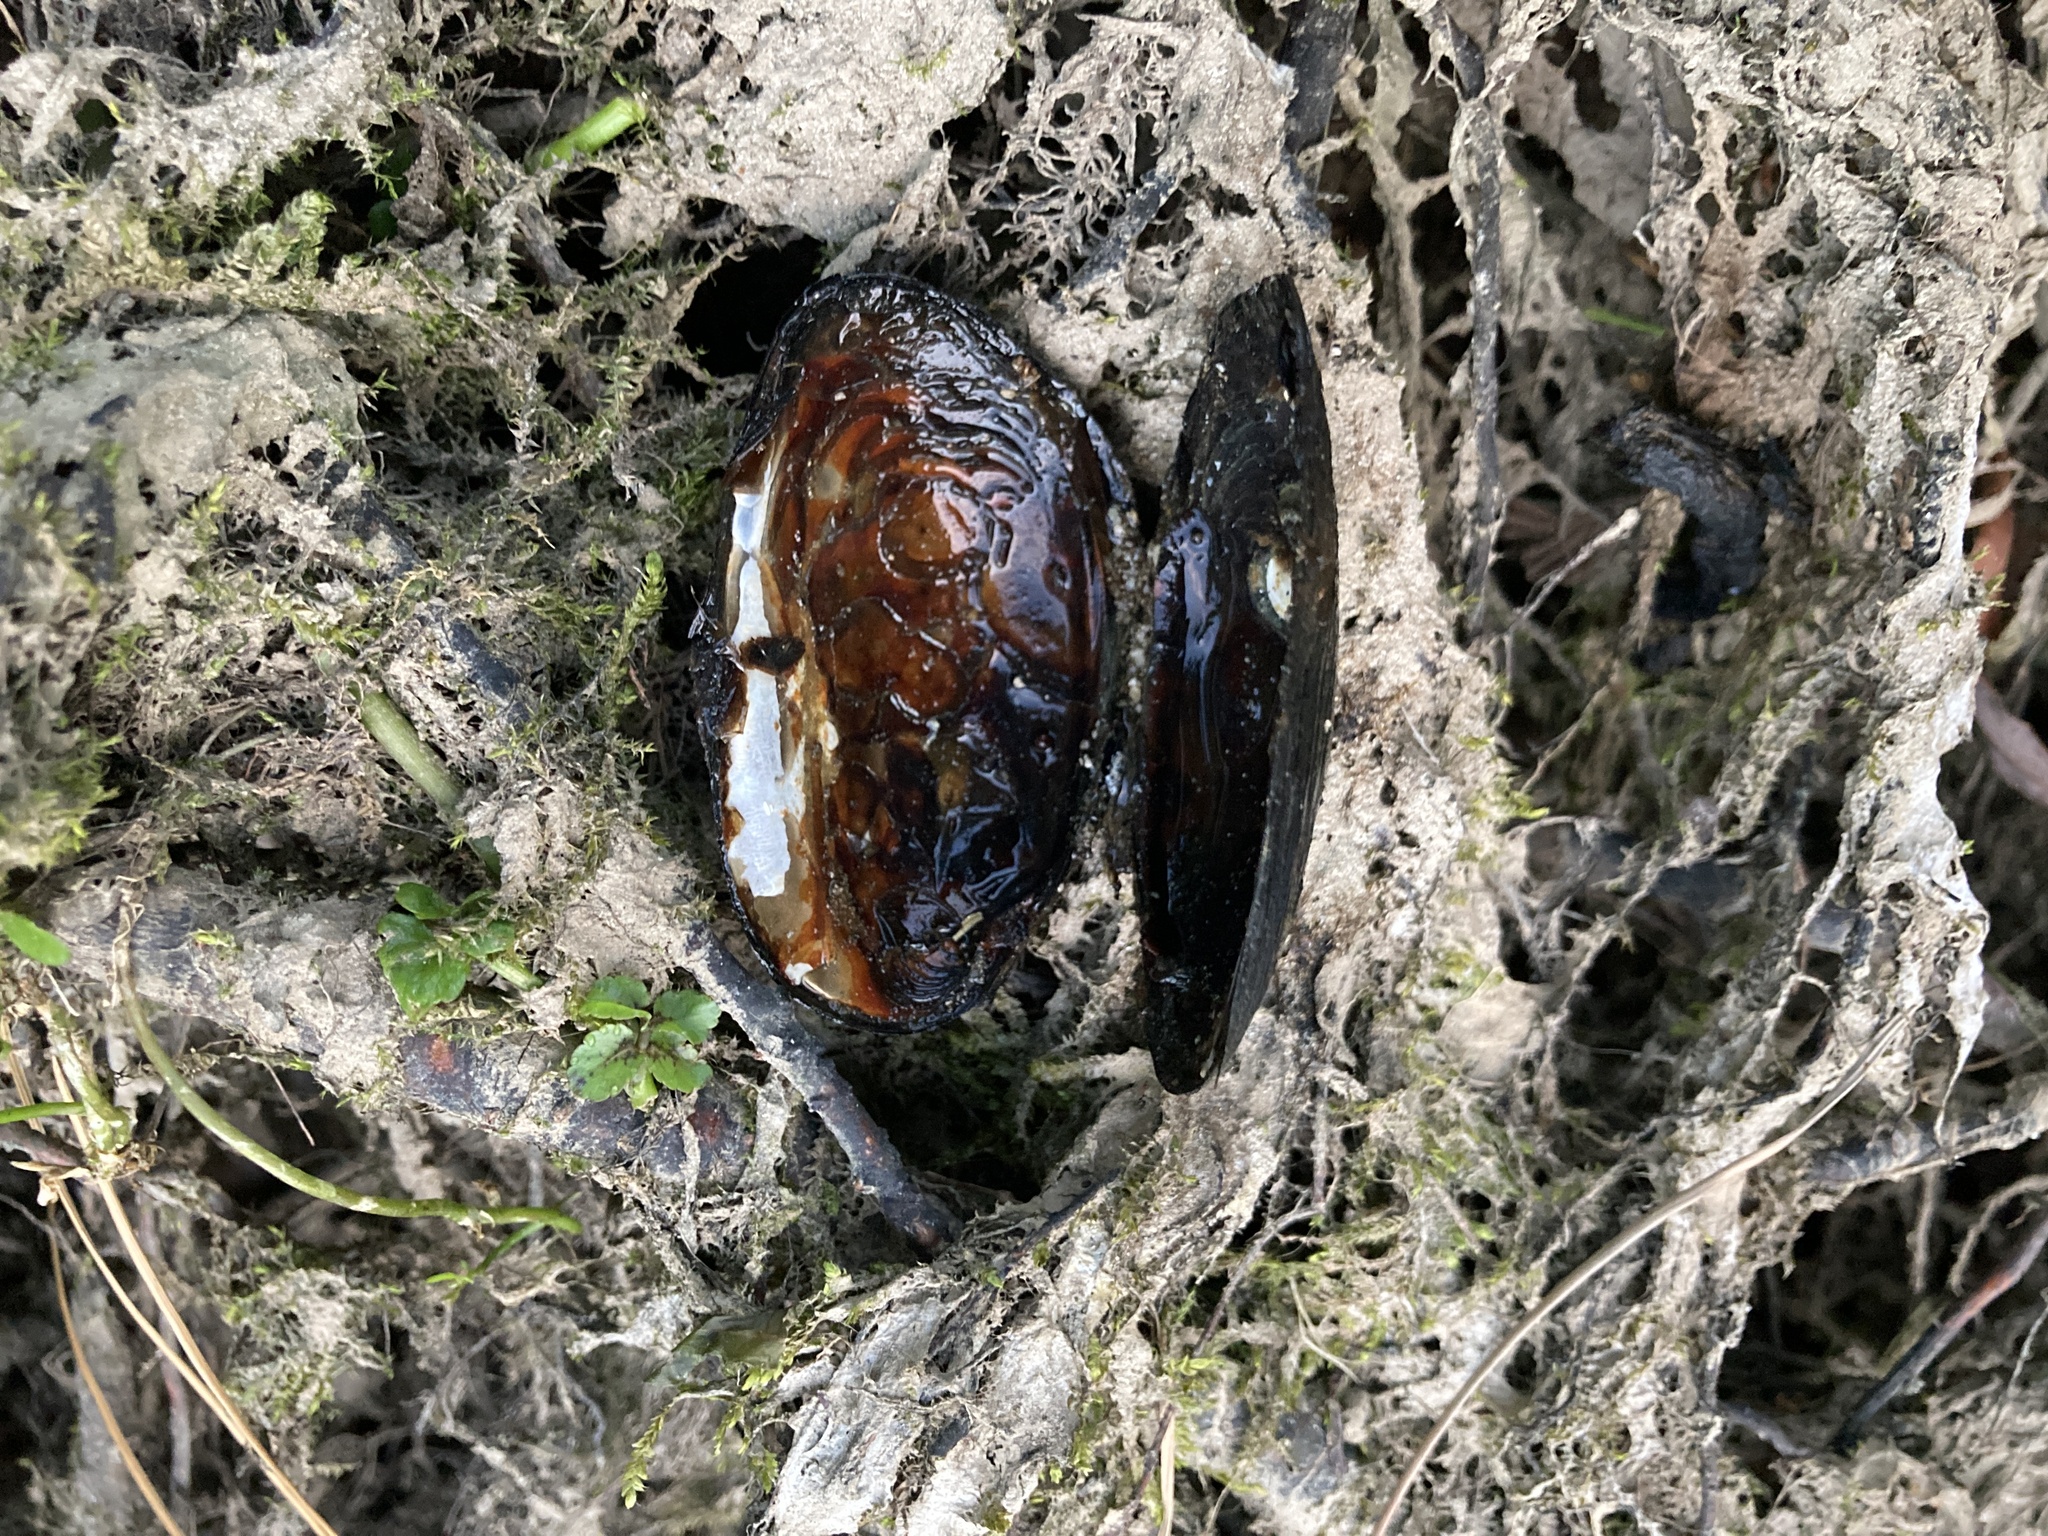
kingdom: Animalia
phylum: Mollusca
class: Bivalvia
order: Unionida
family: Hyriidae
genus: Echyridella
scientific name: Echyridella menziesii
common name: New zealand freshwater mussel
